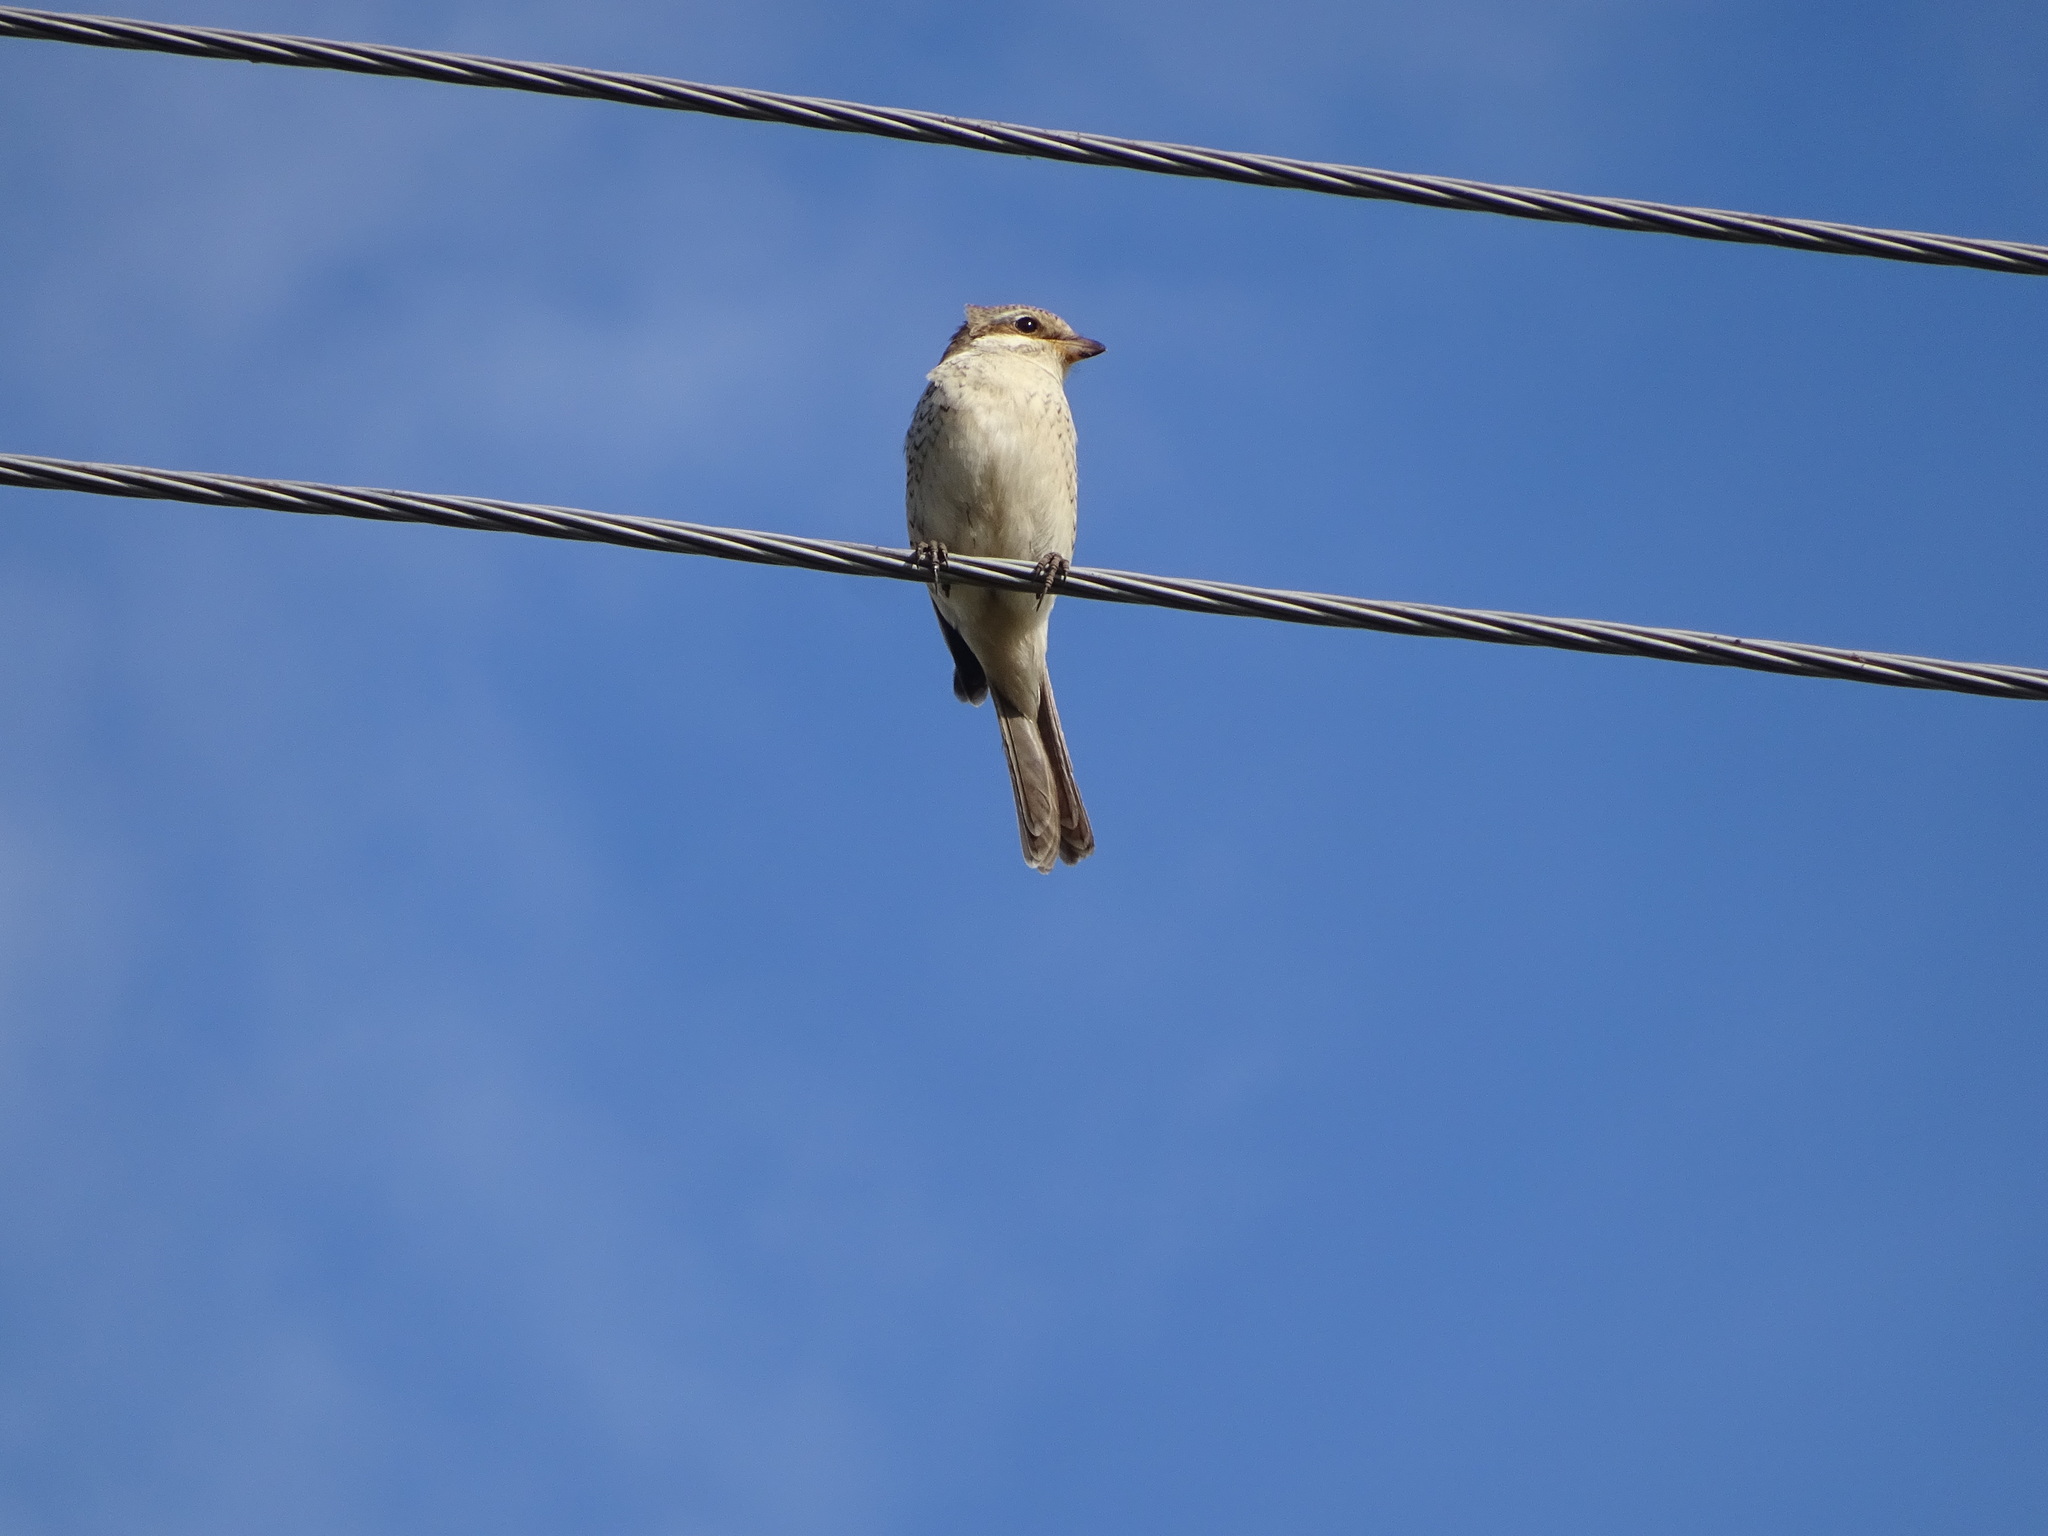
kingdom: Animalia
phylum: Chordata
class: Aves
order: Passeriformes
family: Laniidae
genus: Lanius
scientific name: Lanius collurio
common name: Red-backed shrike
